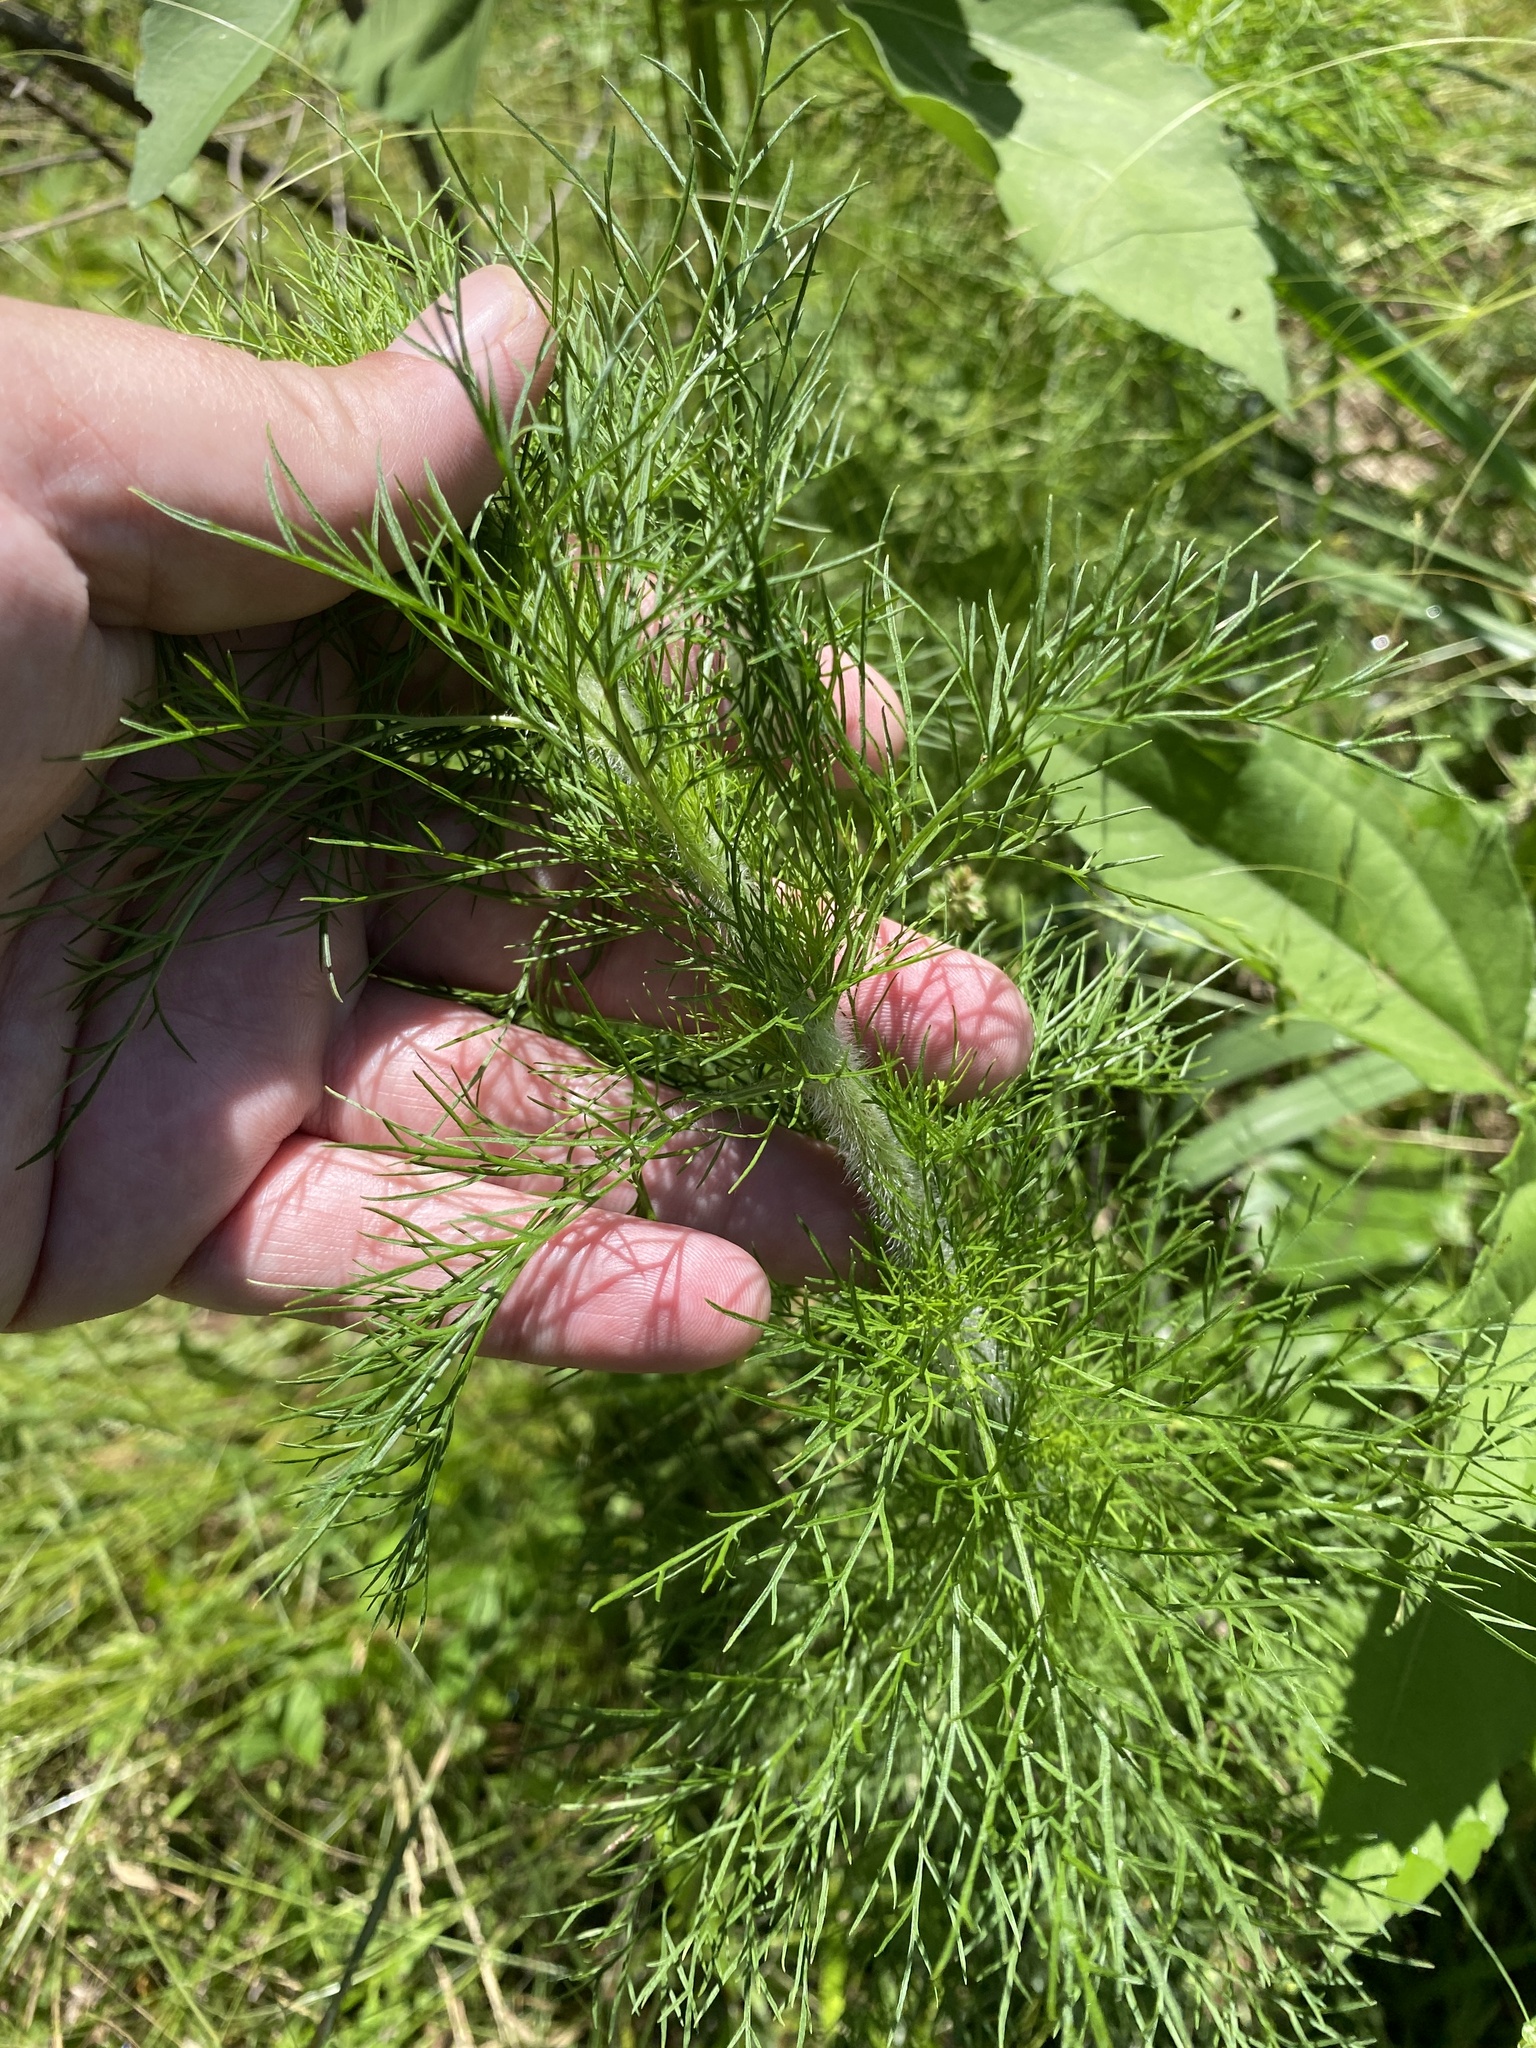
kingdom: Plantae
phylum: Tracheophyta
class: Magnoliopsida
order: Asterales
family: Asteraceae
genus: Eupatorium
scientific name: Eupatorium capillifolium
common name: Dog-fennel
